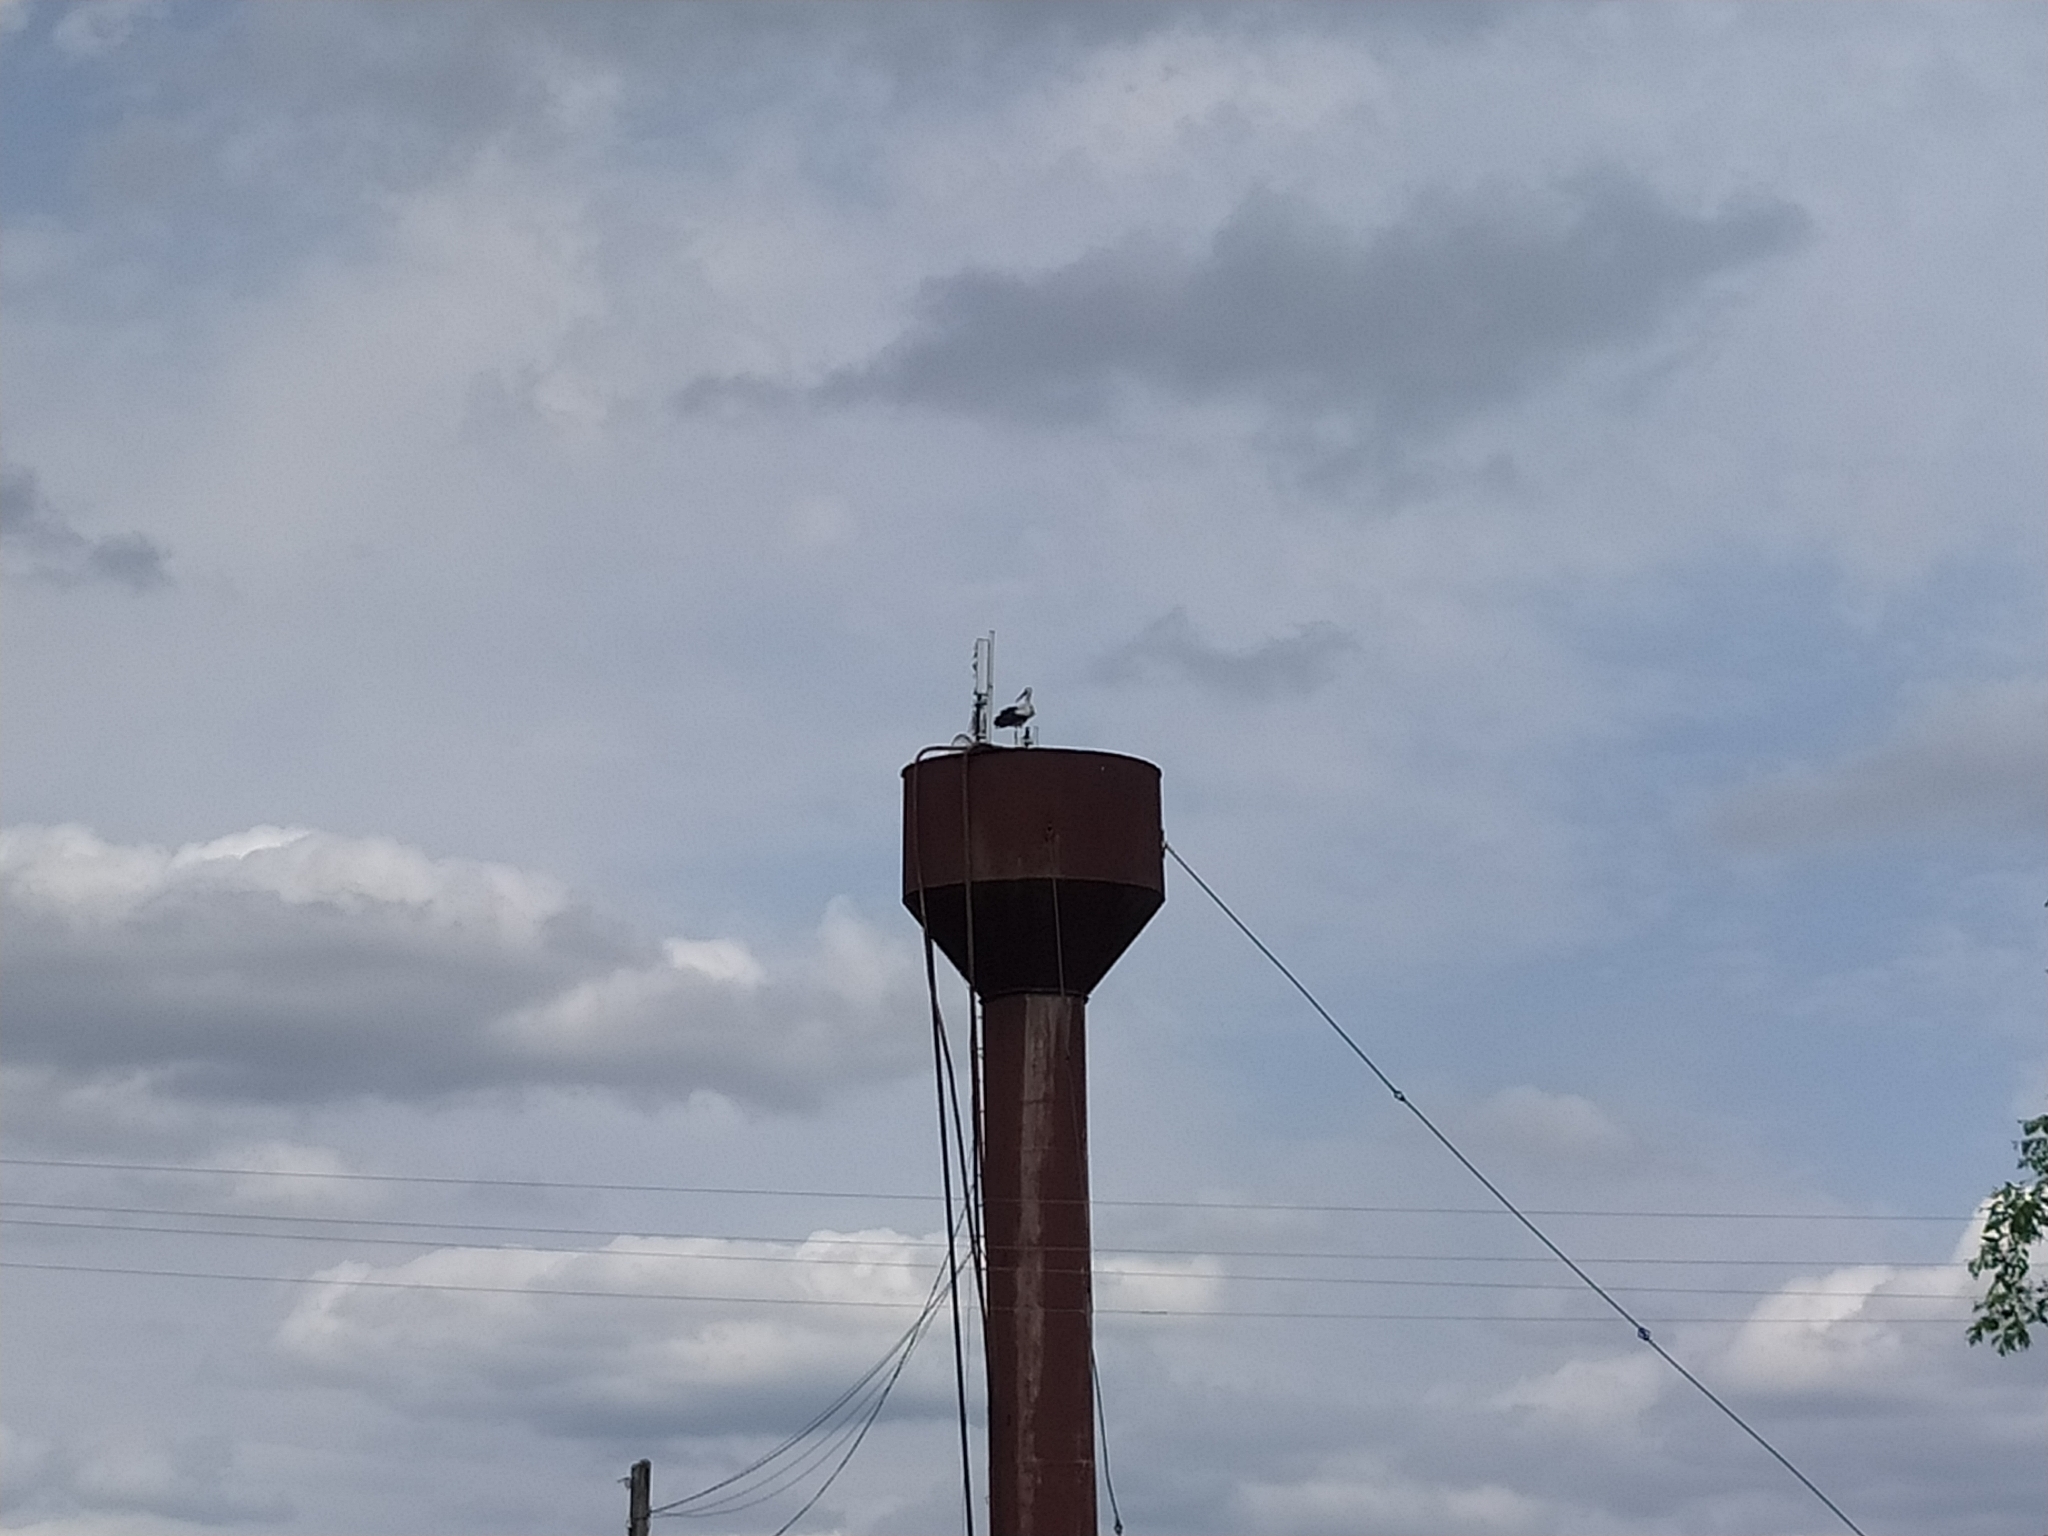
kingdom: Animalia
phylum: Chordata
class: Aves
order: Ciconiiformes
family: Ciconiidae
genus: Ciconia
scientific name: Ciconia ciconia
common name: White stork
